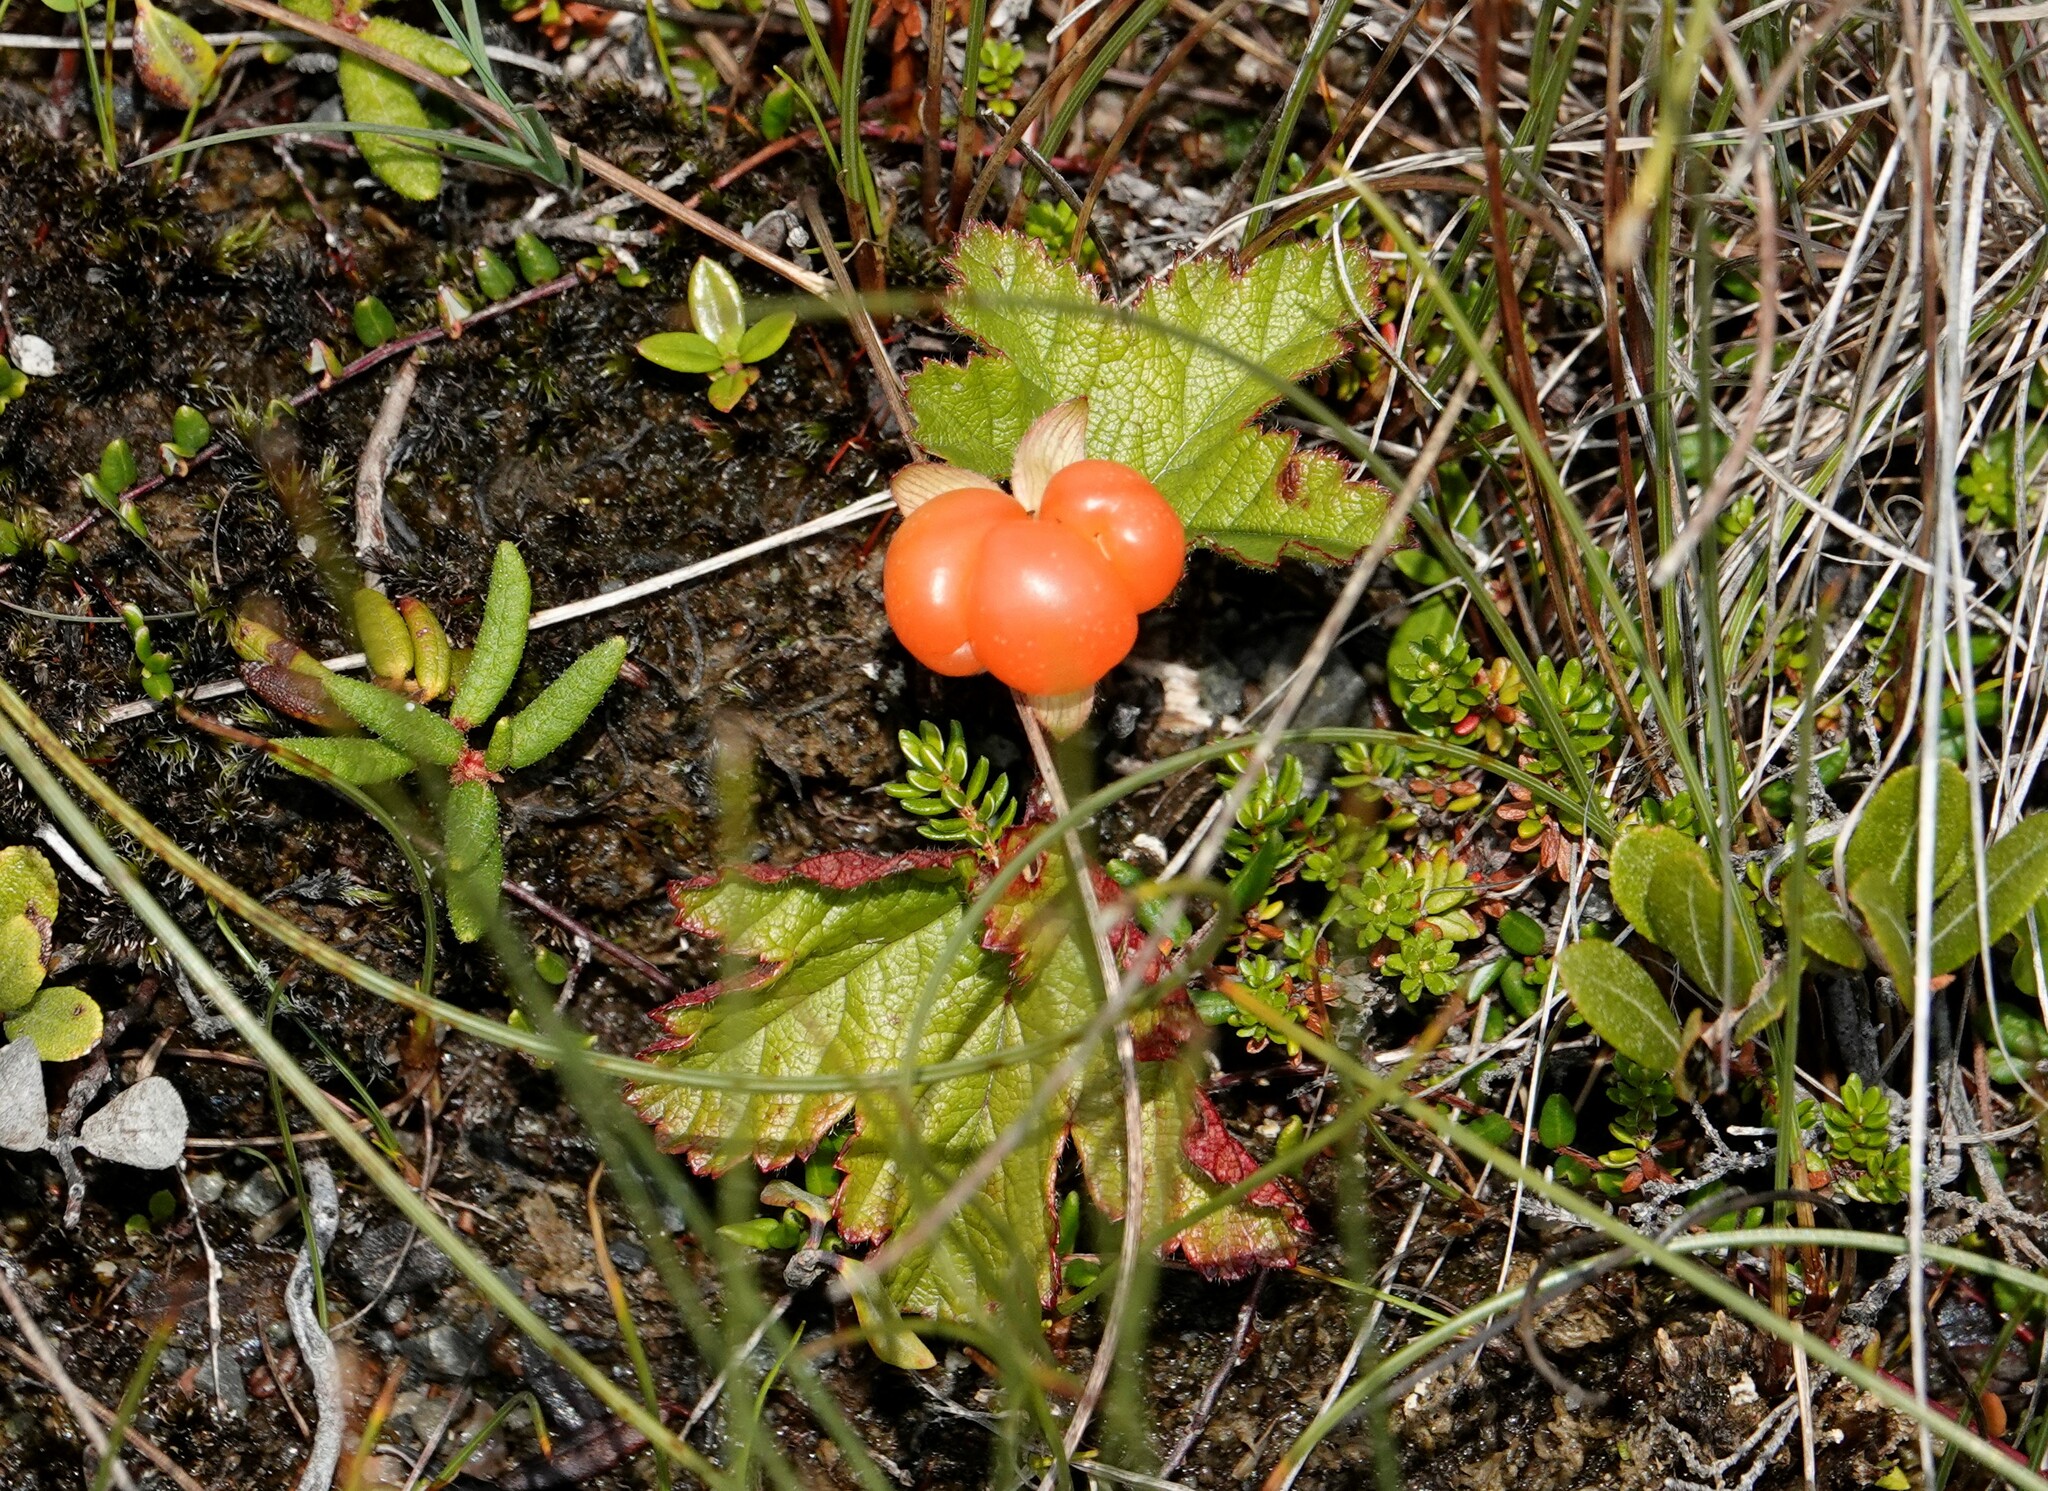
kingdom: Plantae
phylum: Tracheophyta
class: Magnoliopsida
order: Rosales
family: Rosaceae
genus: Rubus
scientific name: Rubus chamaemorus
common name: Cloudberry
